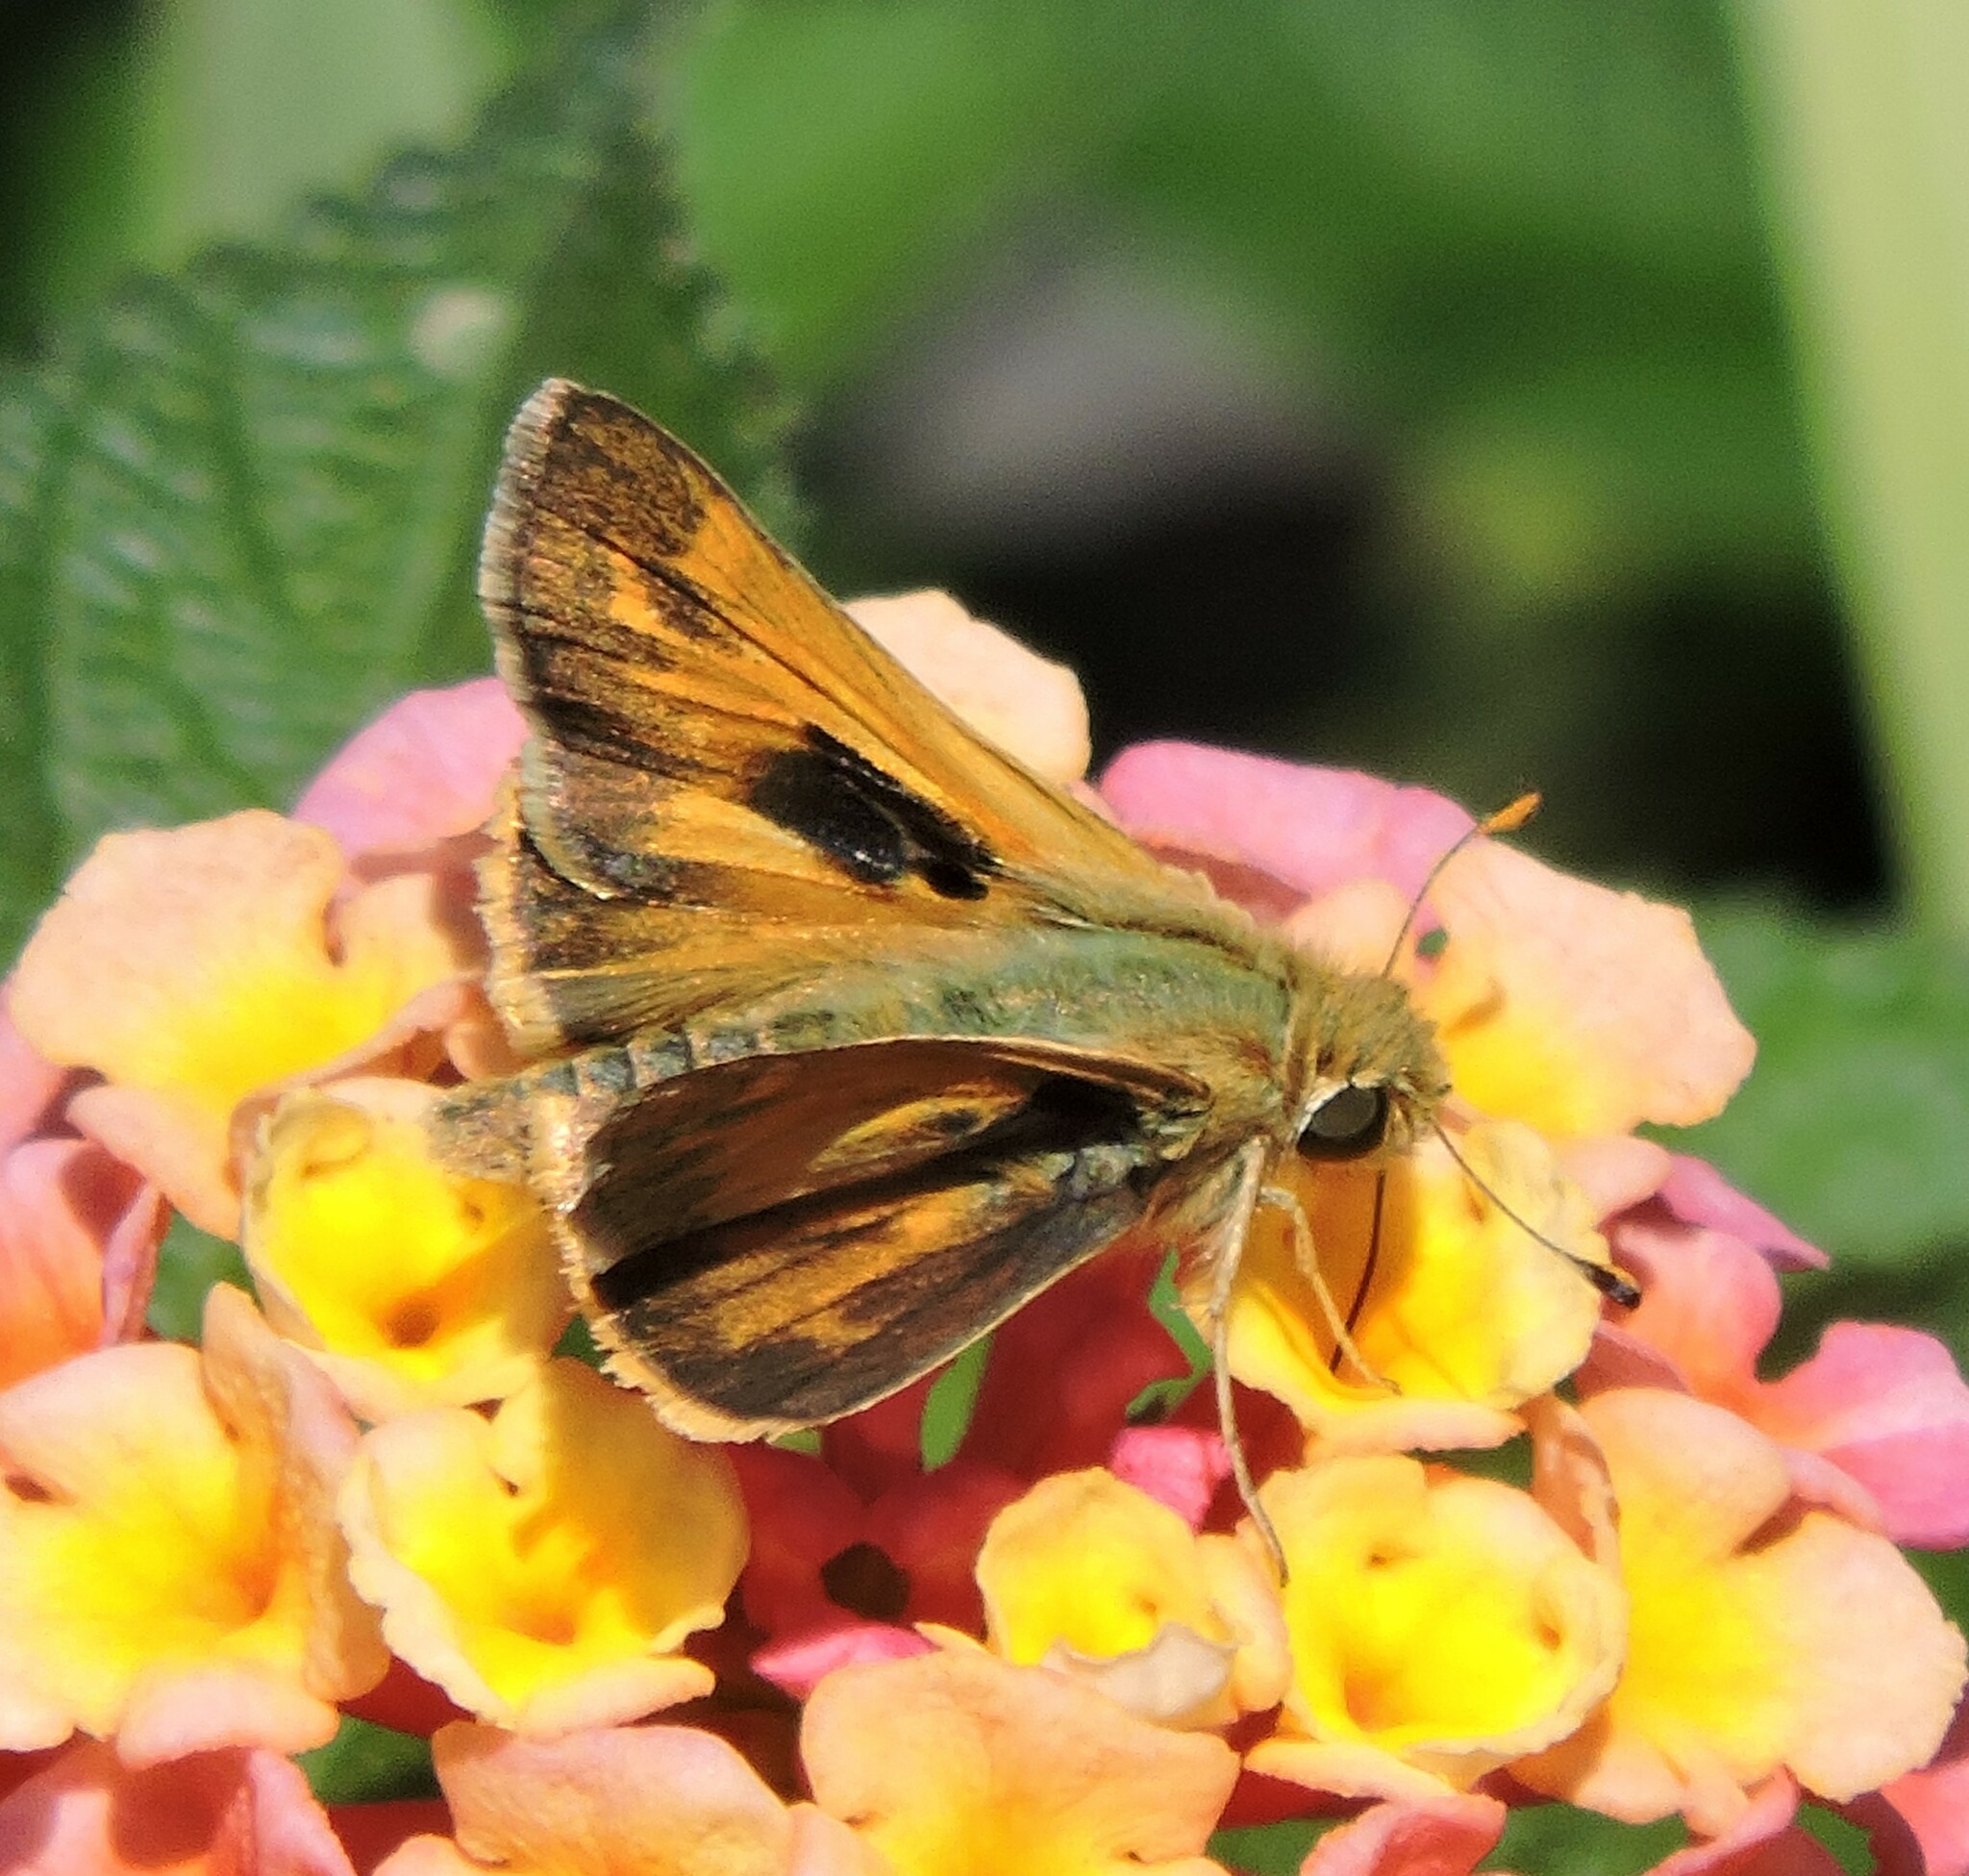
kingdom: Animalia
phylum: Arthropoda
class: Insecta
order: Lepidoptera
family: Hesperiidae
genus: Atalopedes
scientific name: Atalopedes campestris
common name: Sachem
